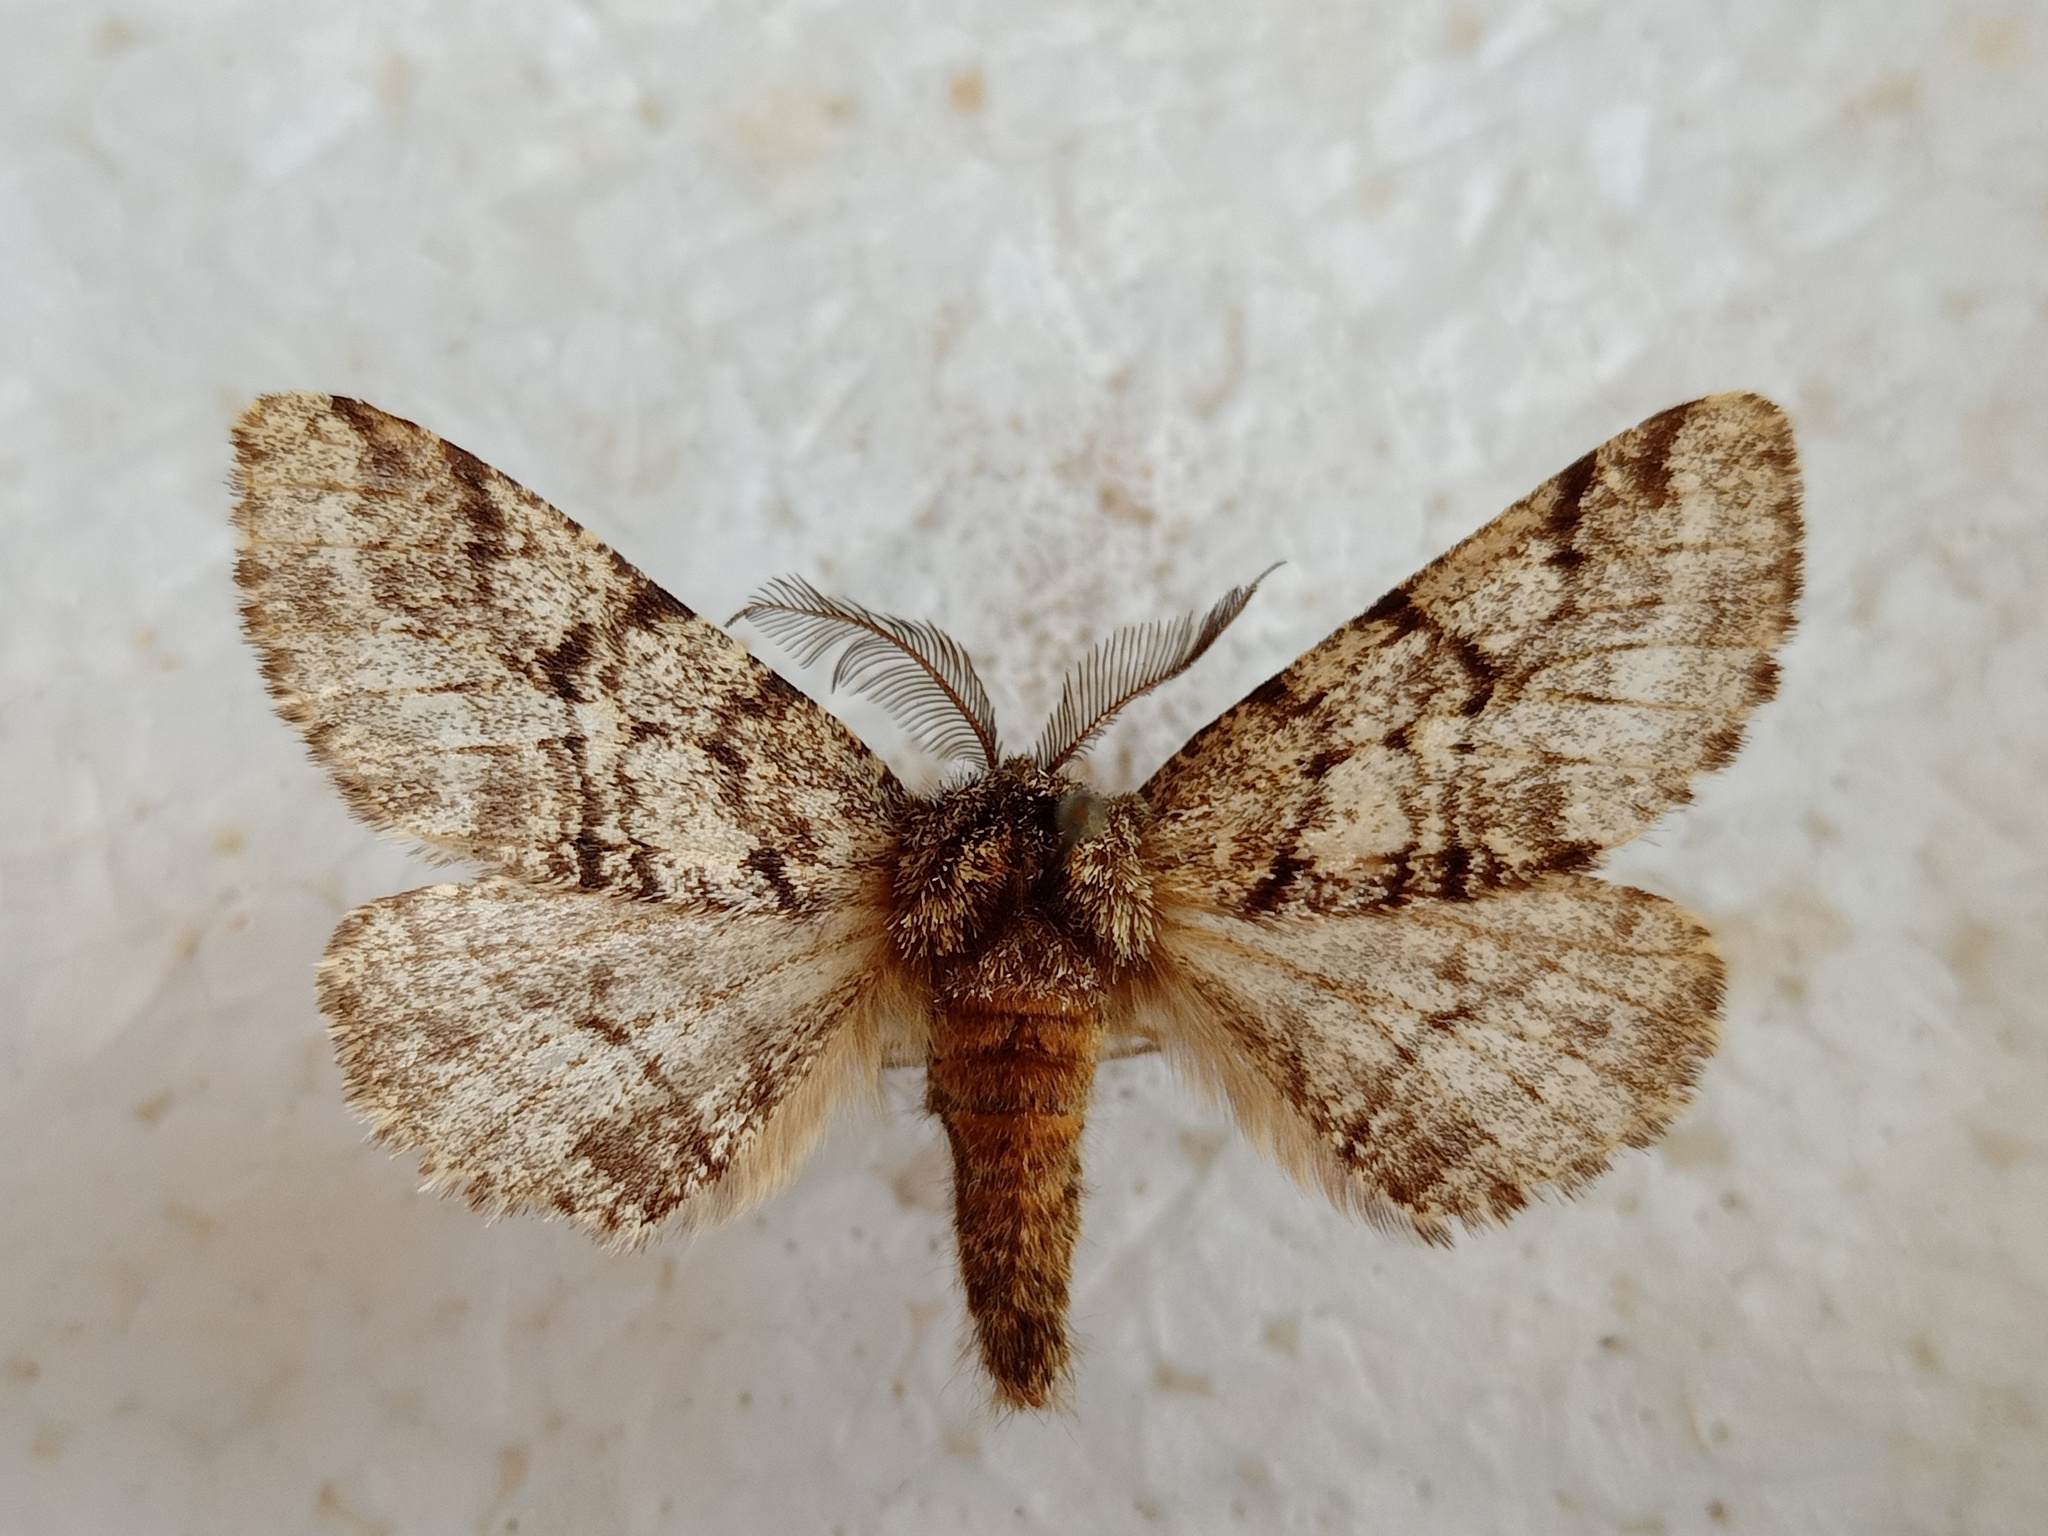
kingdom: Animalia
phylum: Arthropoda
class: Insecta
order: Lepidoptera
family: Geometridae
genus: Lycia
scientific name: Lycia hirtaria
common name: Brindled beauty
